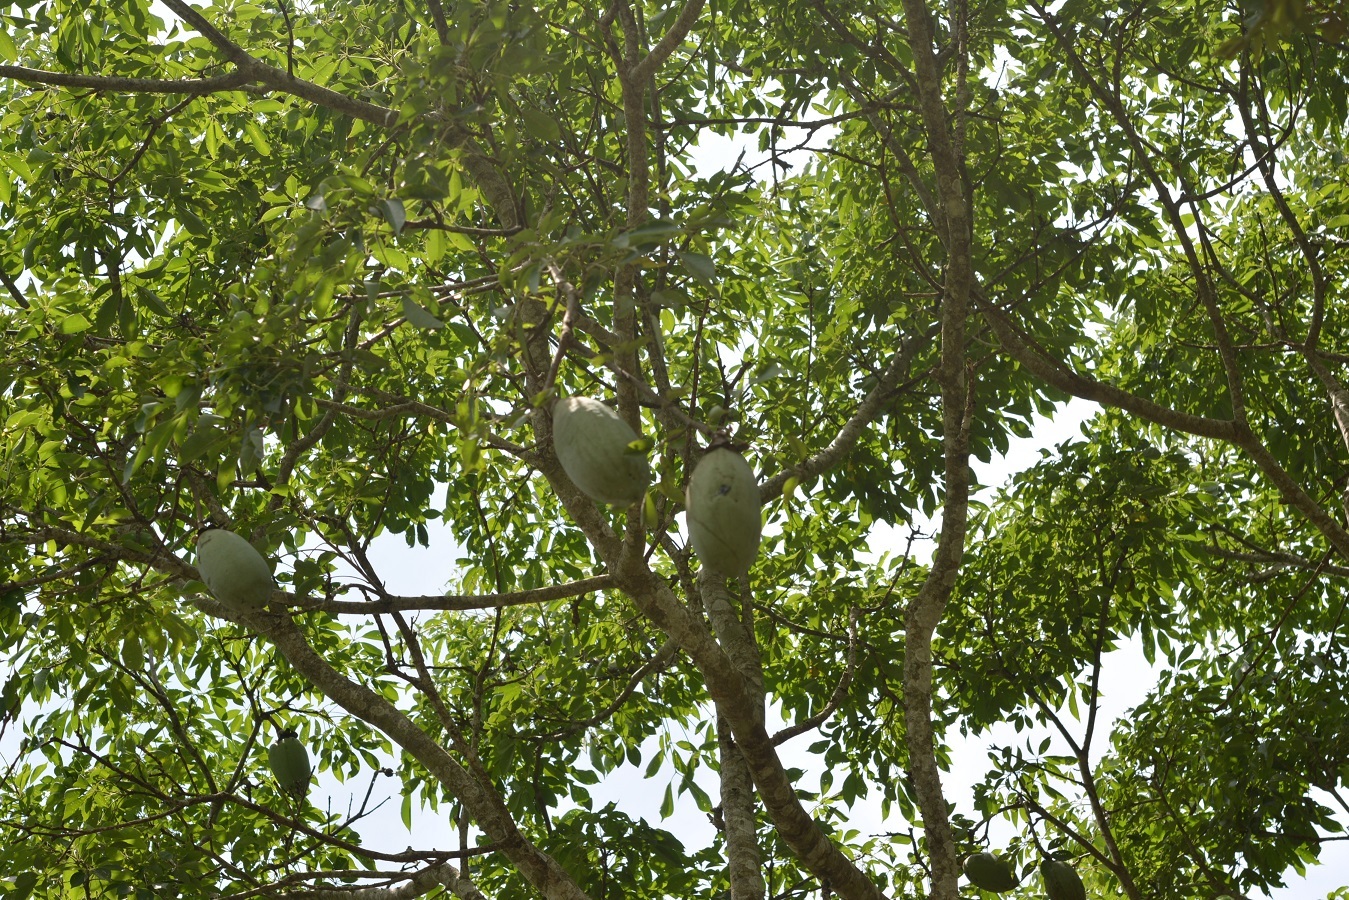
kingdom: Plantae
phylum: Tracheophyta
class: Magnoliopsida
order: Malvales
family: Malvaceae
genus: Ceiba
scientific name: Ceiba aesculifolia
